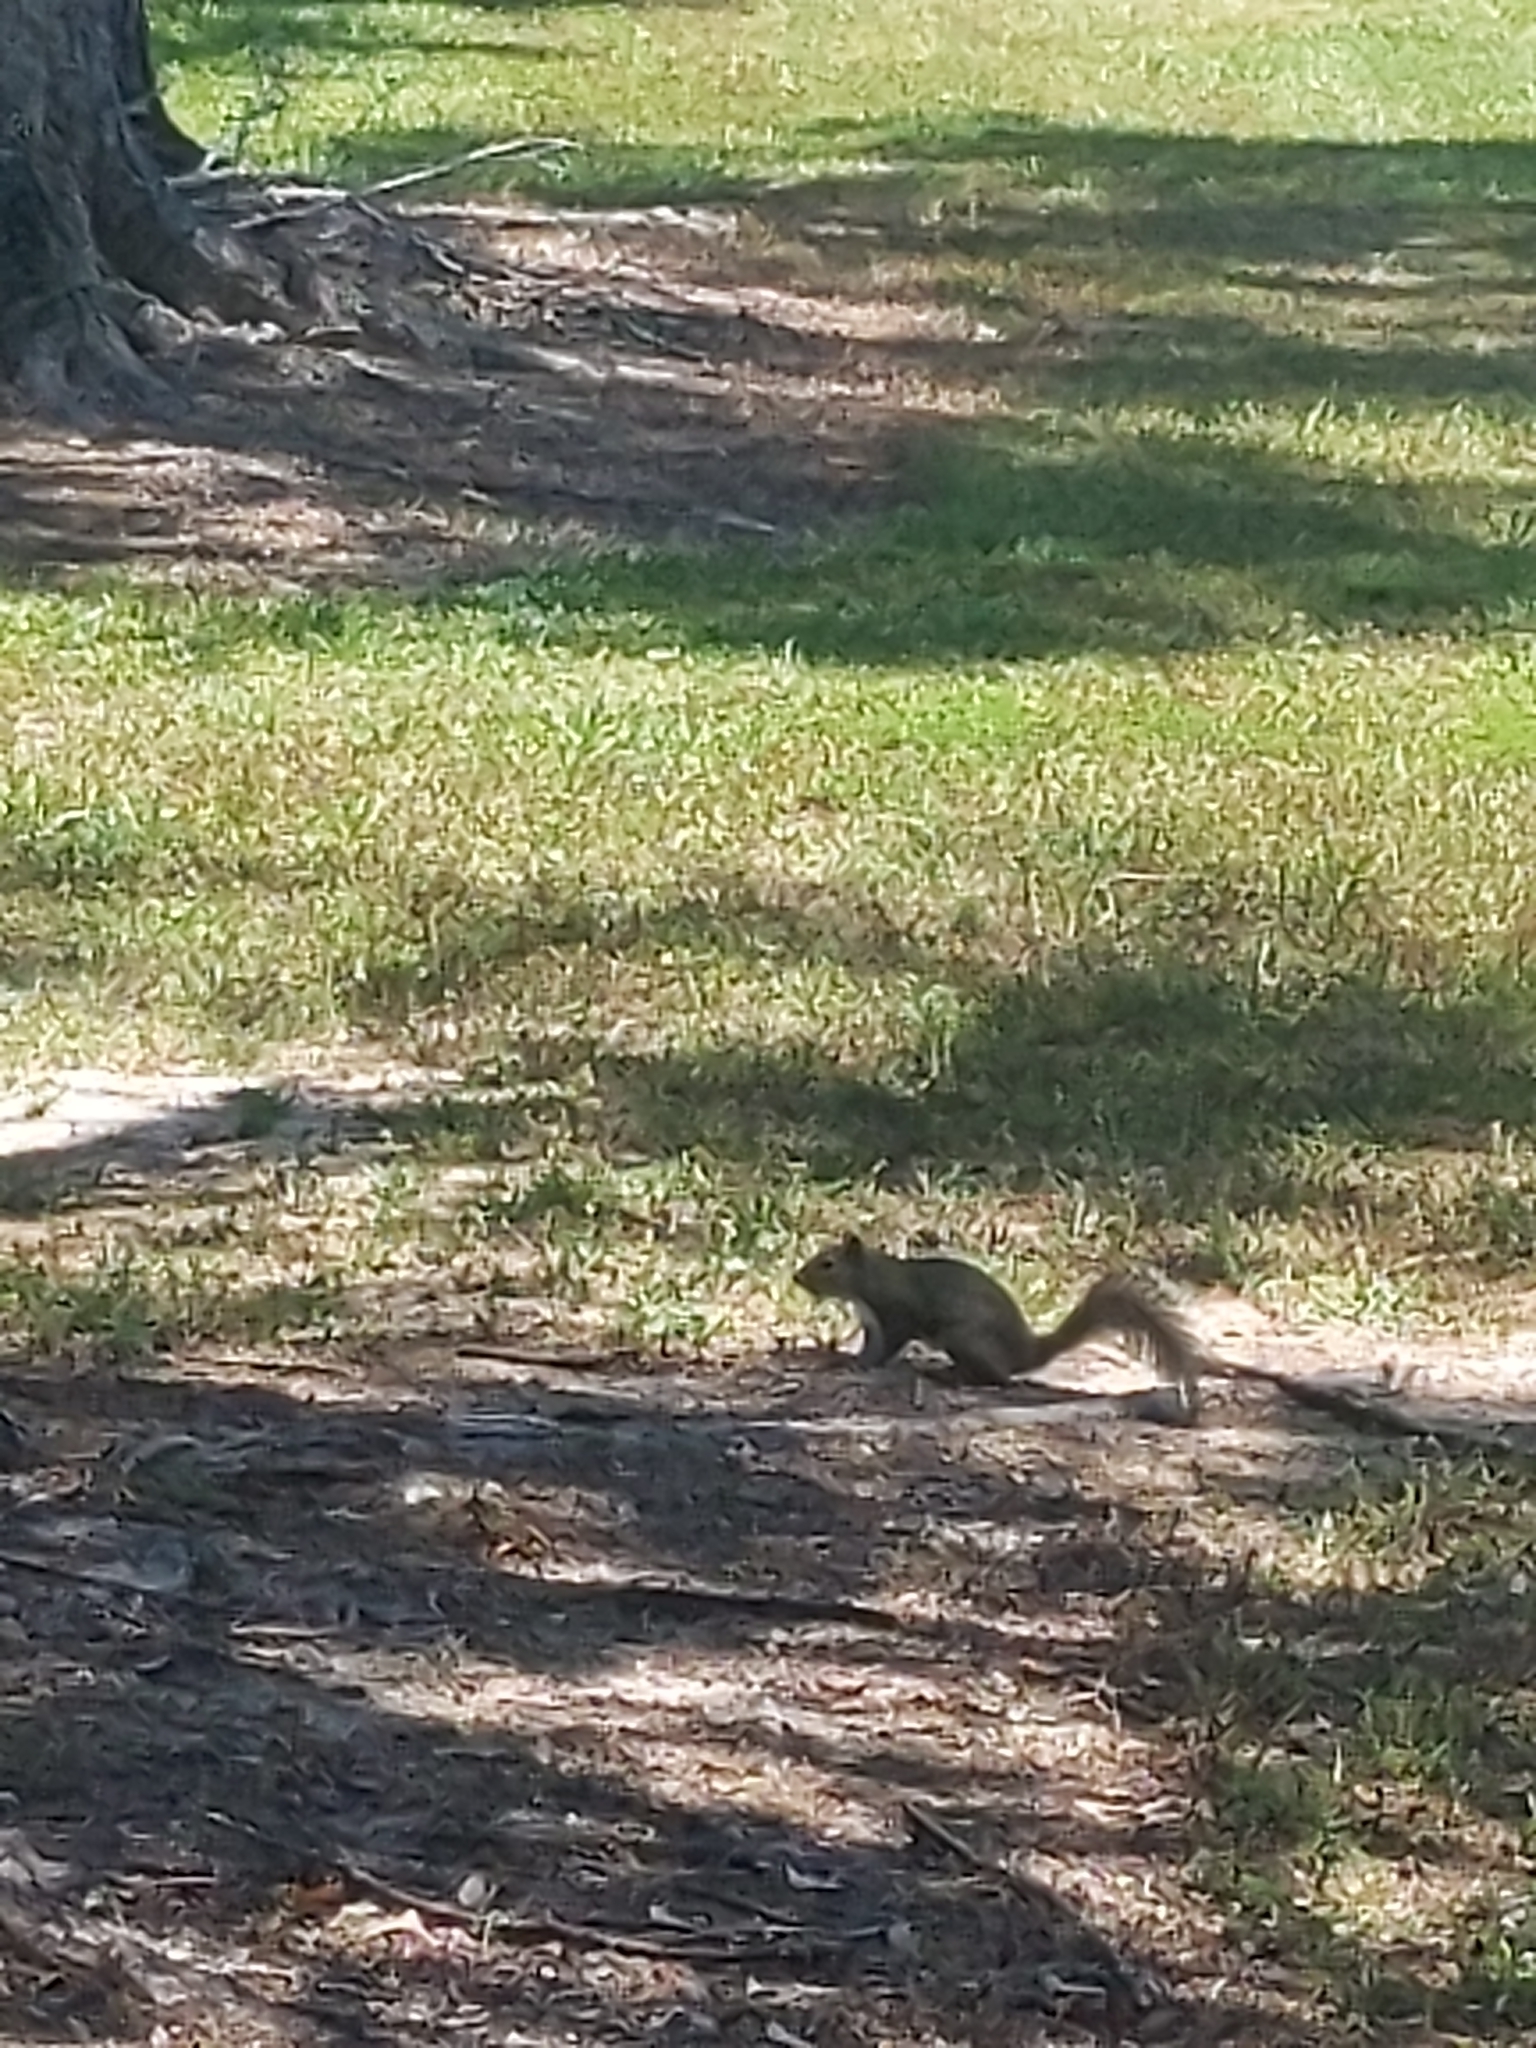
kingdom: Animalia
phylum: Chordata
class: Mammalia
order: Rodentia
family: Sciuridae
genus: Sciurus
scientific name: Sciurus carolinensis
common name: Eastern gray squirrel
